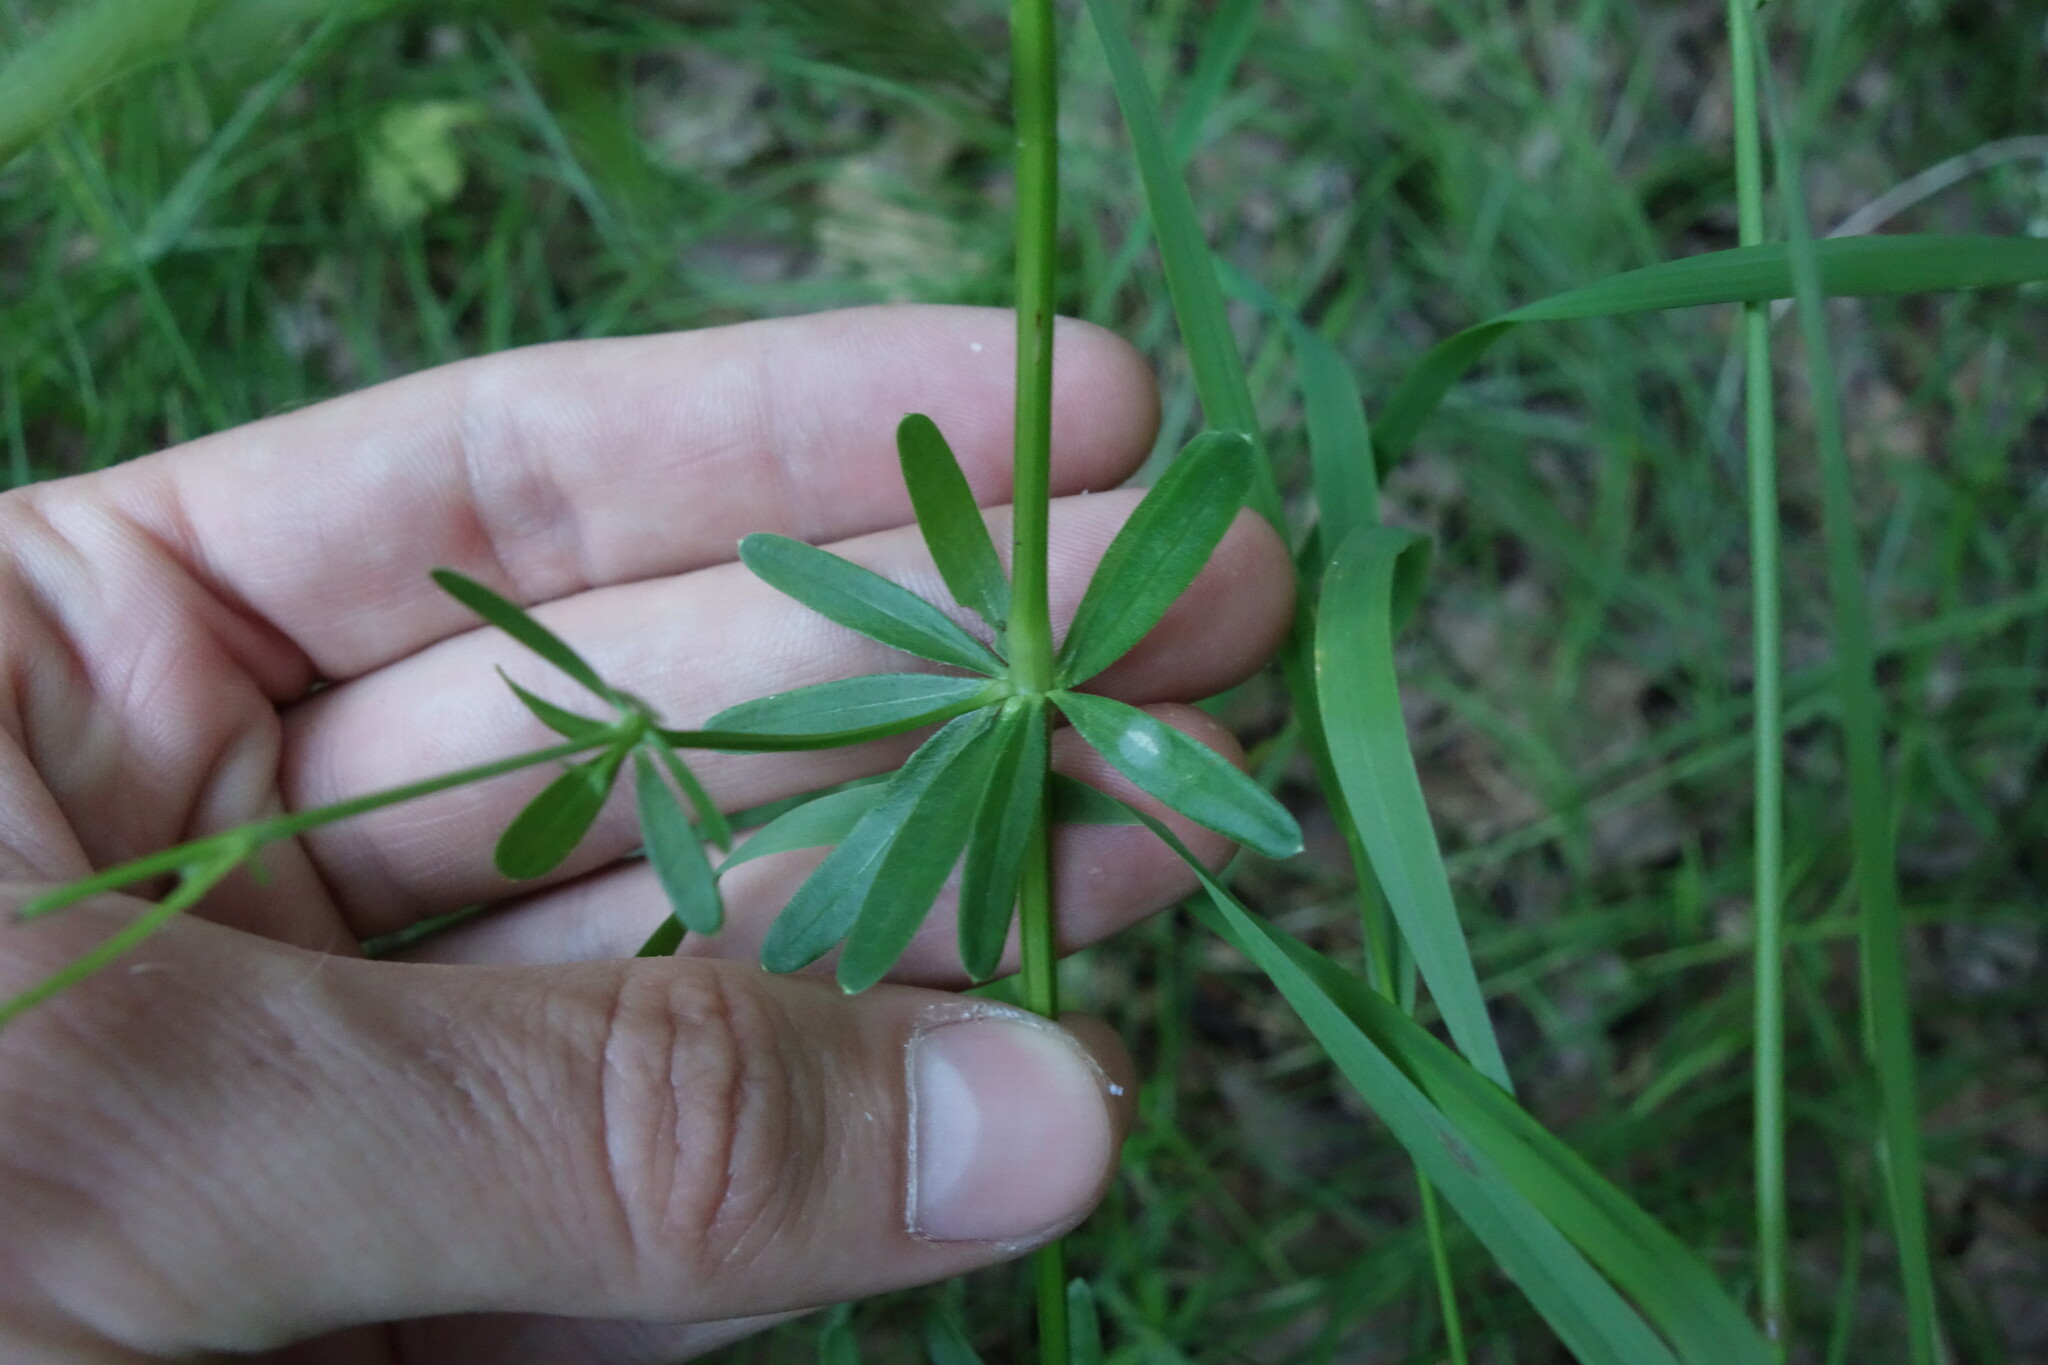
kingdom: Plantae
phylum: Tracheophyta
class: Magnoliopsida
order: Gentianales
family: Rubiaceae
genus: Galium
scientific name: Galium mollugo
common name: Hedge bedstraw
